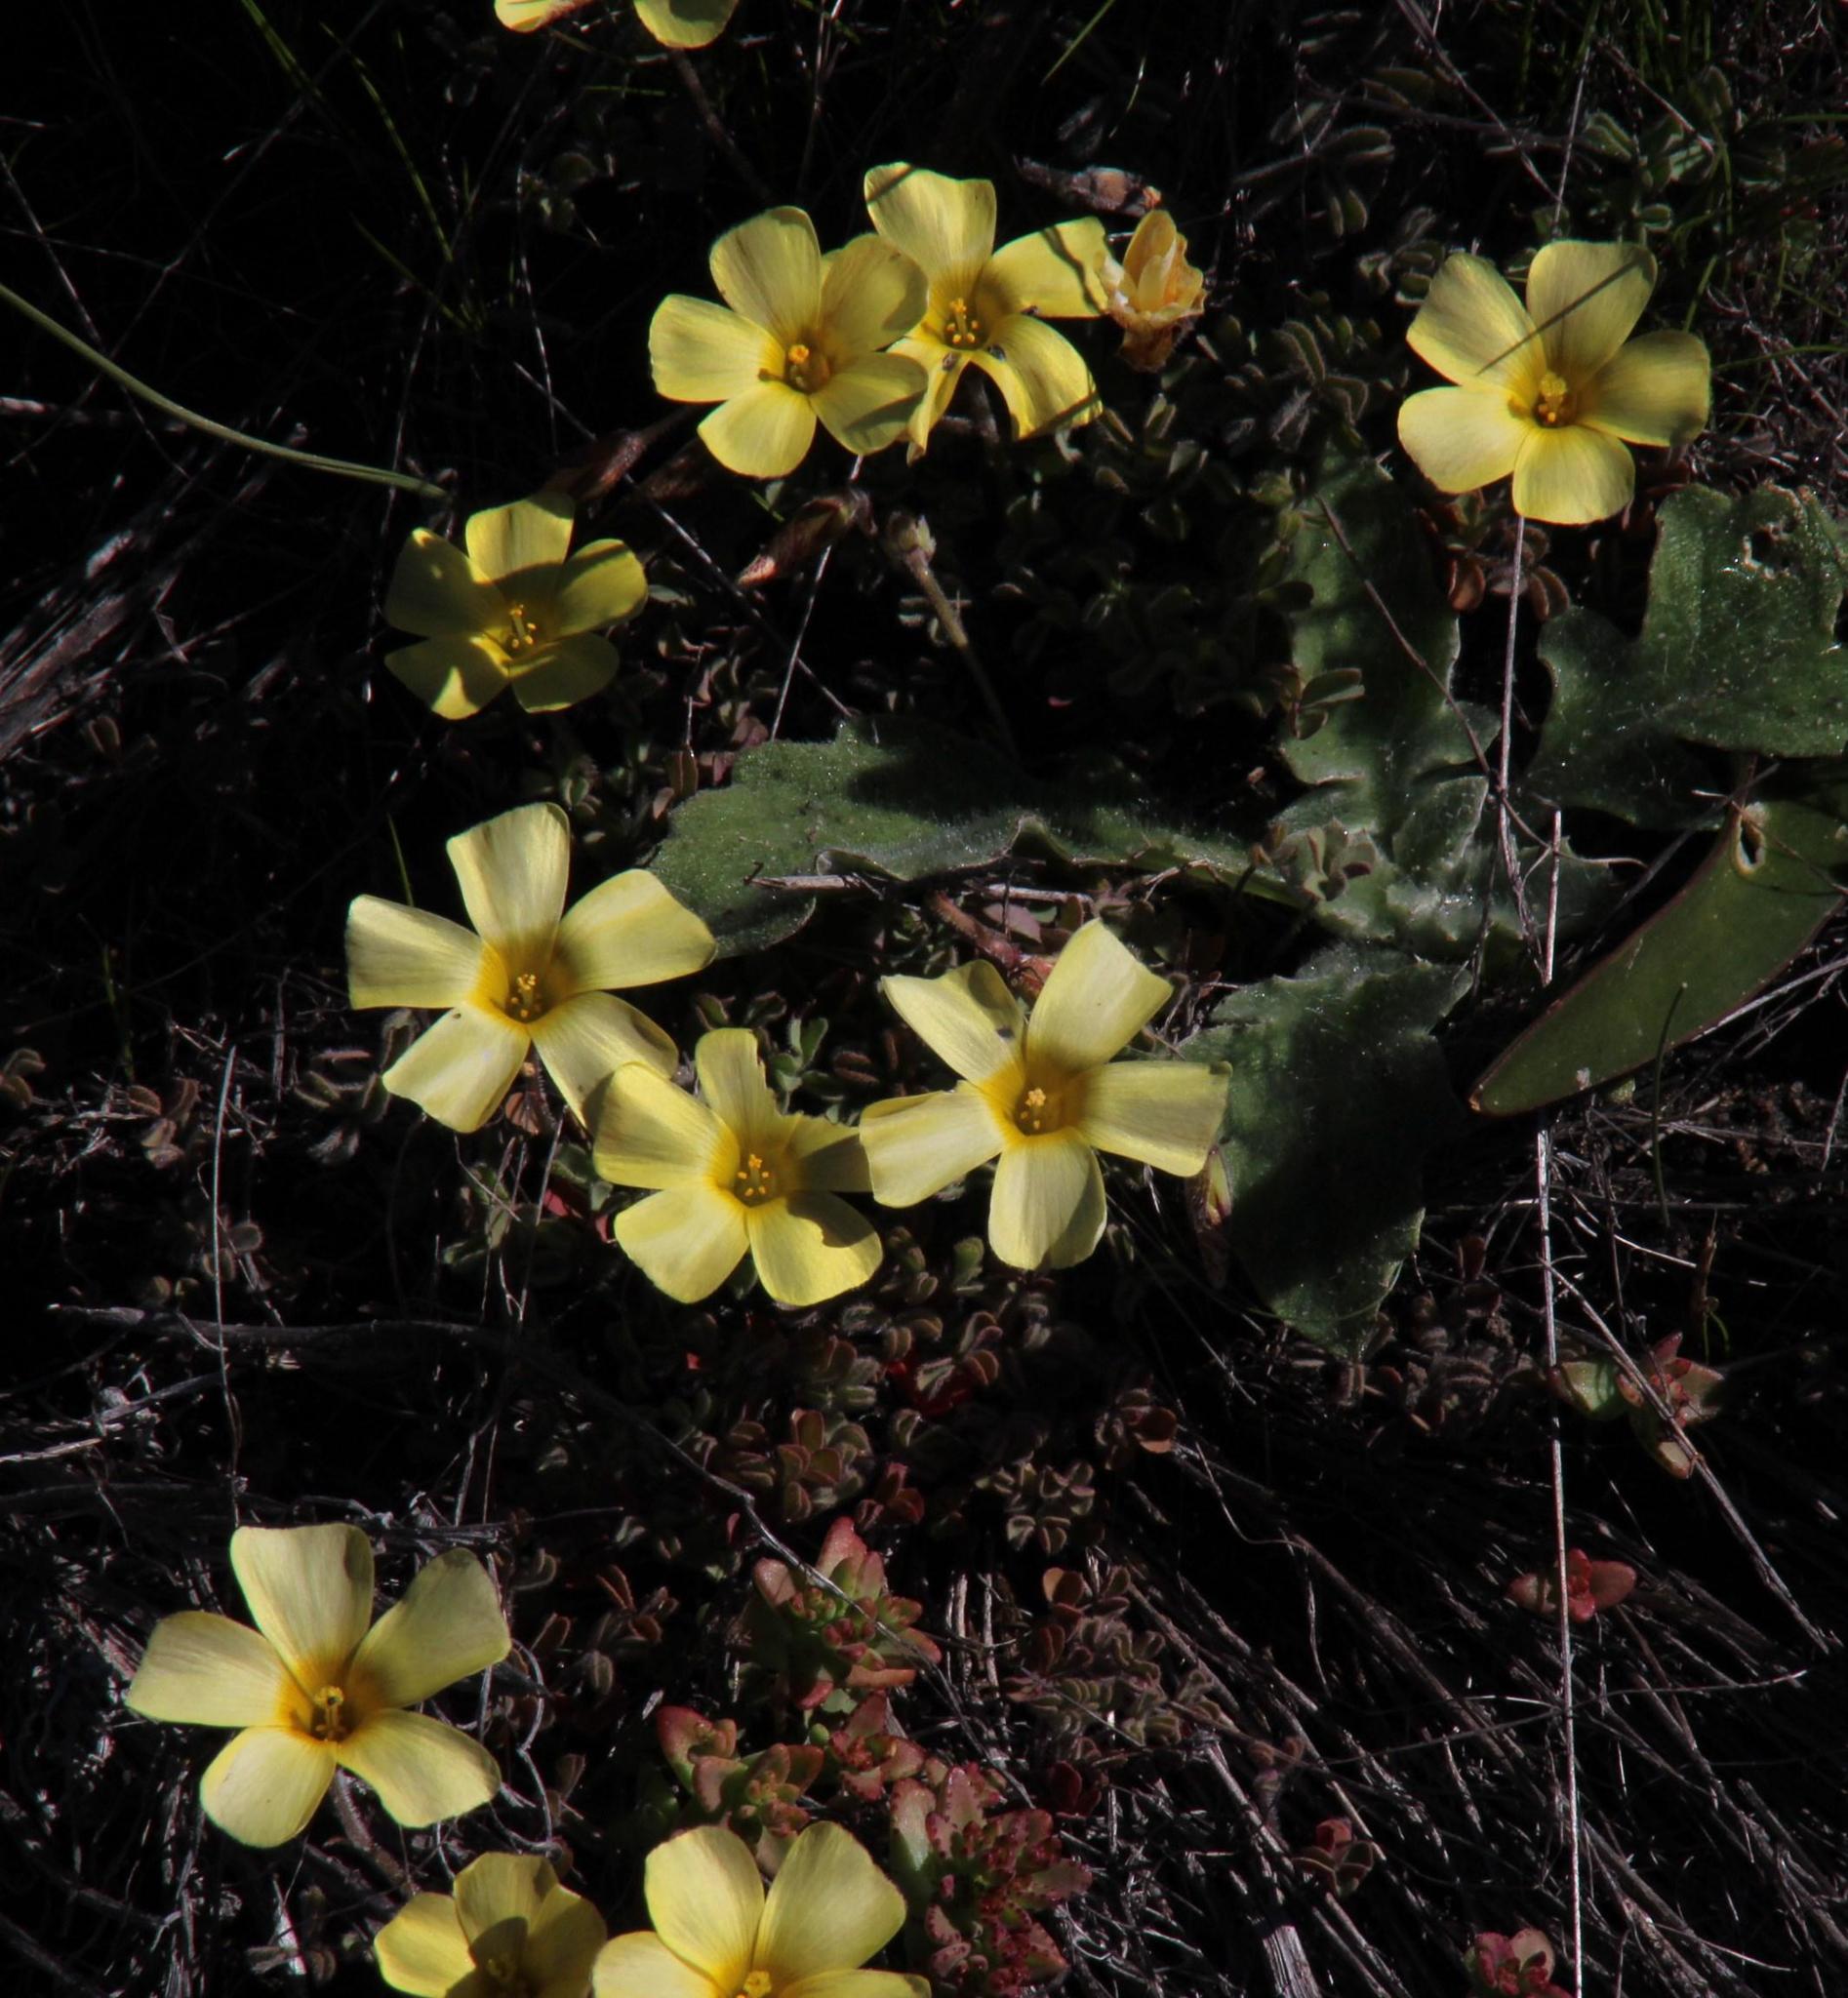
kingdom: Plantae
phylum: Tracheophyta
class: Magnoliopsida
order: Oxalidales
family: Oxalidaceae
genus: Oxalis
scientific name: Oxalis obtusa
